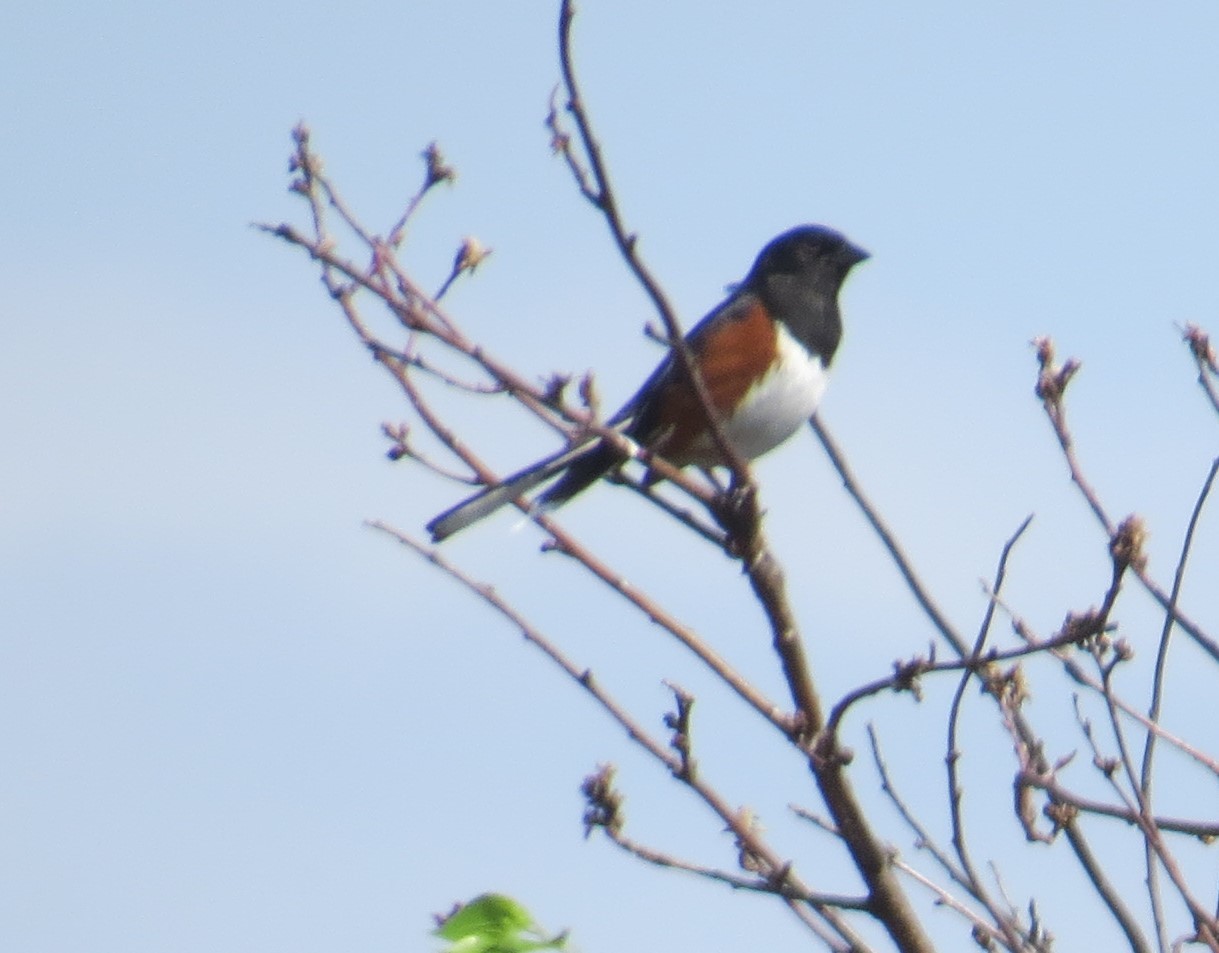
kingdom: Animalia
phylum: Chordata
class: Aves
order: Passeriformes
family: Passerellidae
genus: Pipilo
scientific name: Pipilo erythrophthalmus
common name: Eastern towhee
